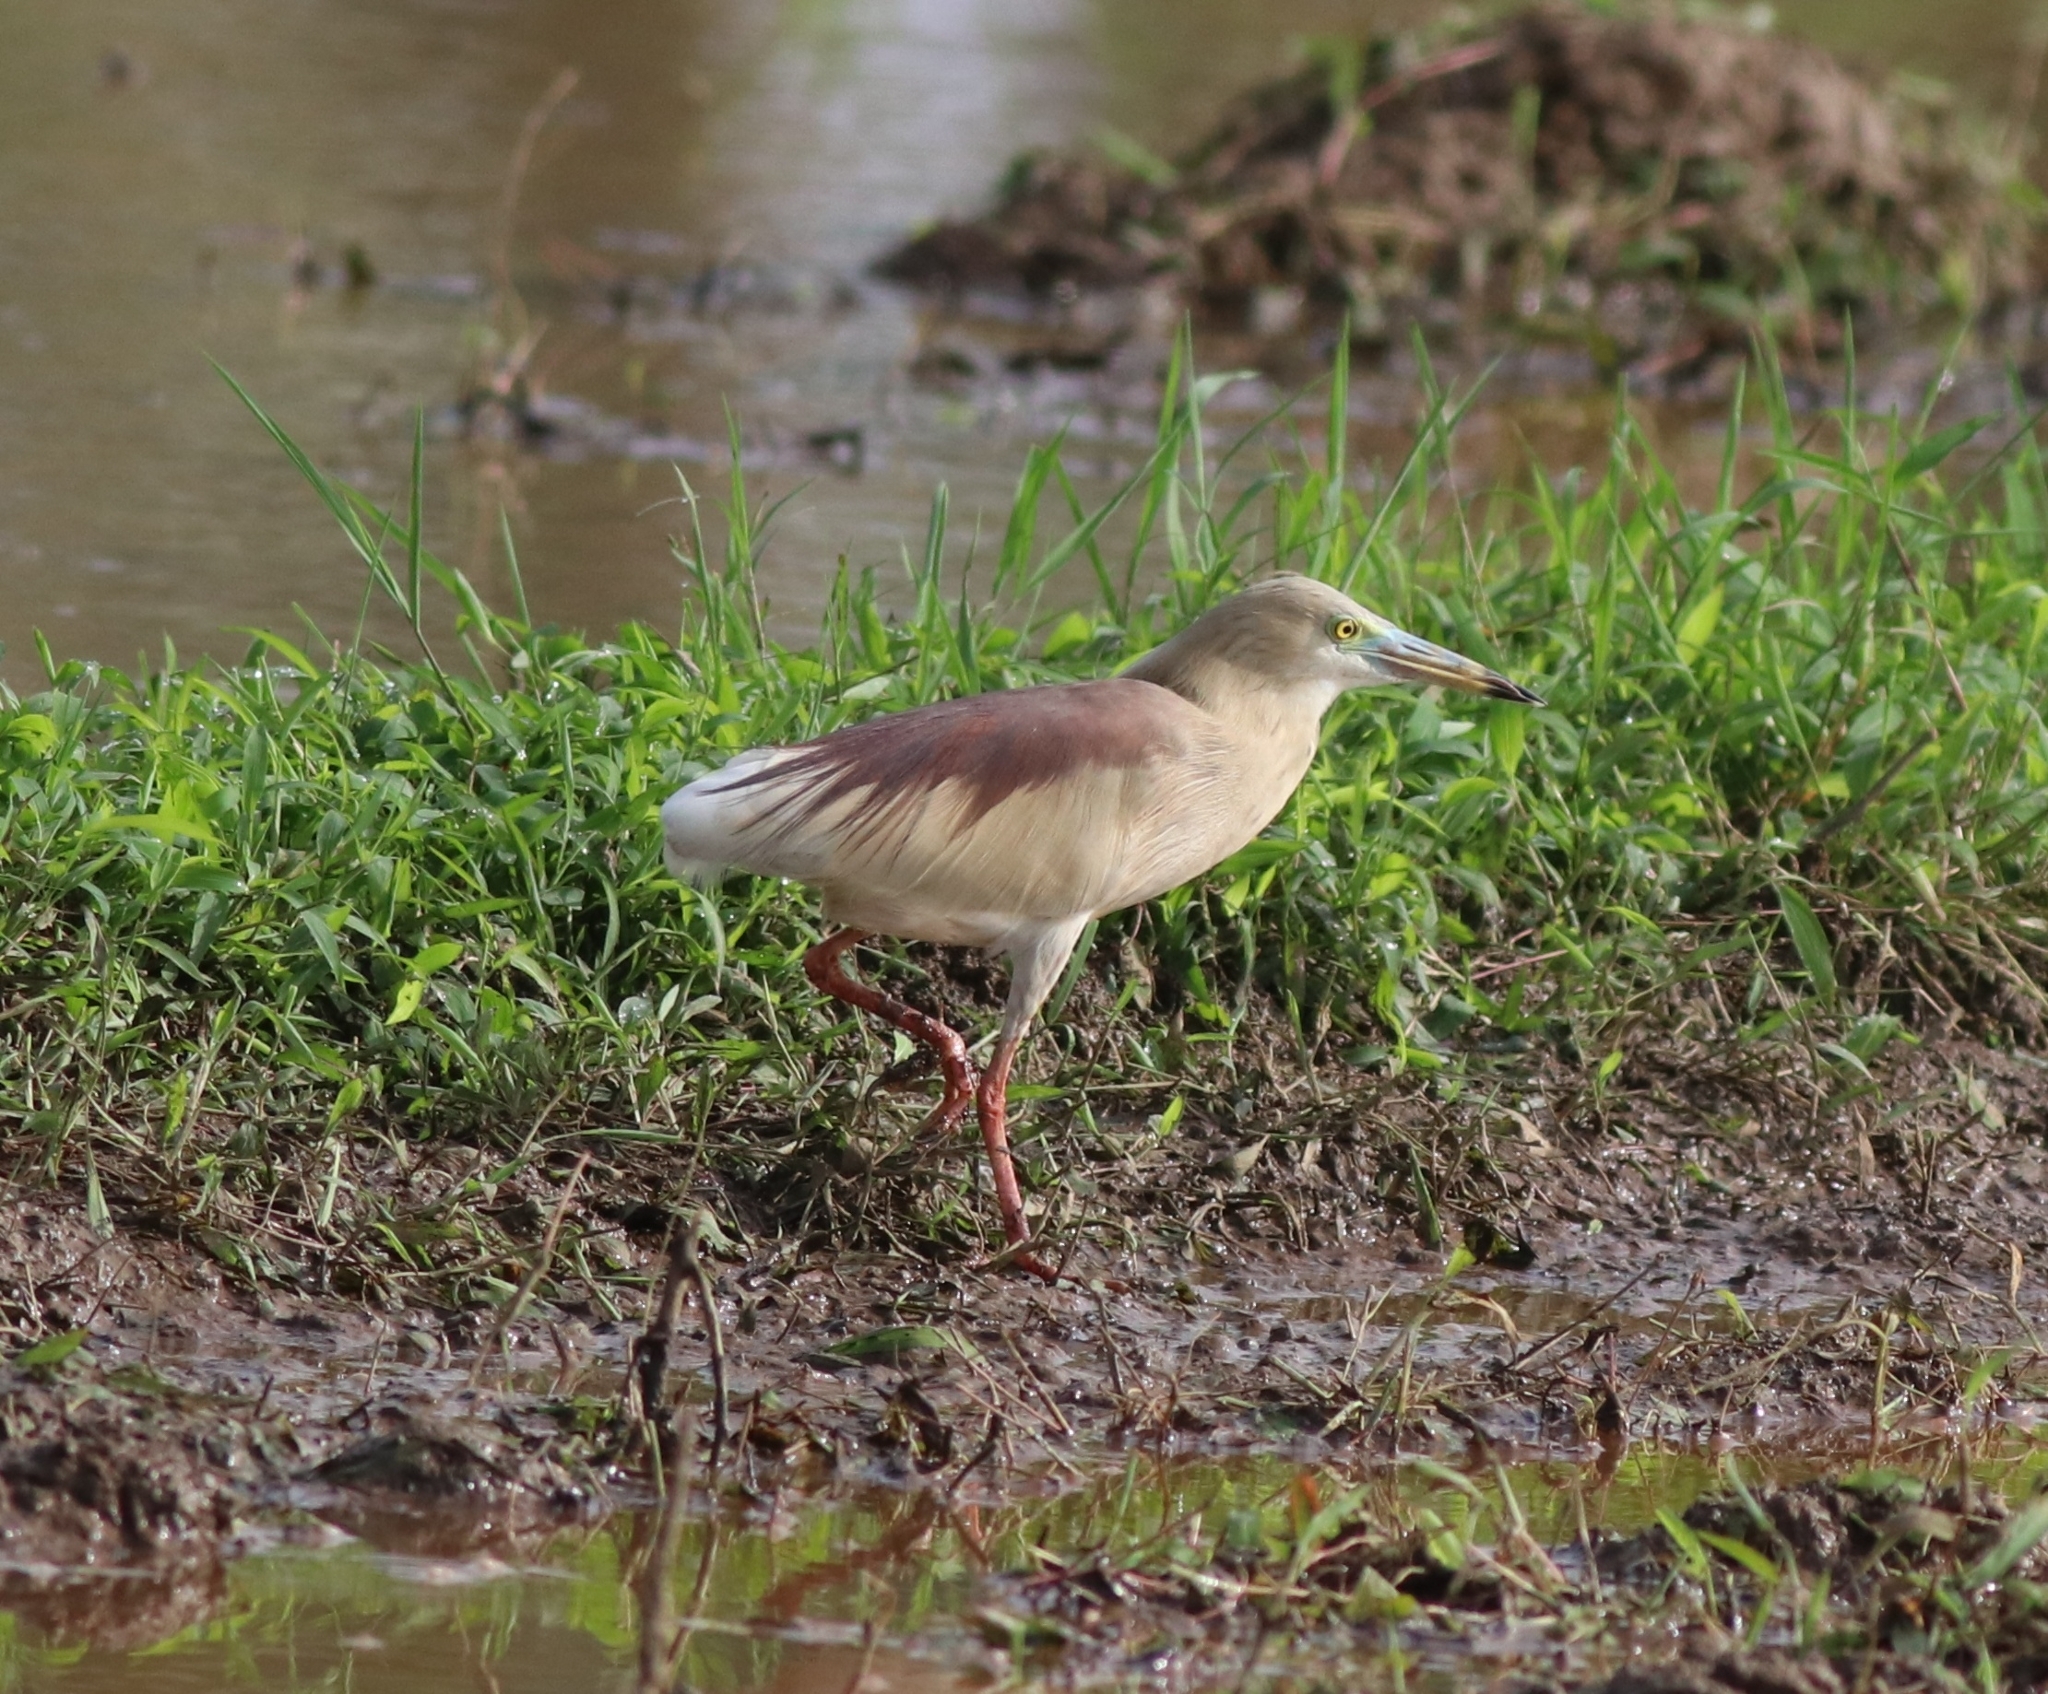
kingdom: Animalia
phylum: Chordata
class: Aves
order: Pelecaniformes
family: Ardeidae
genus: Ardeola
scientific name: Ardeola grayii
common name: Indian pond heron
